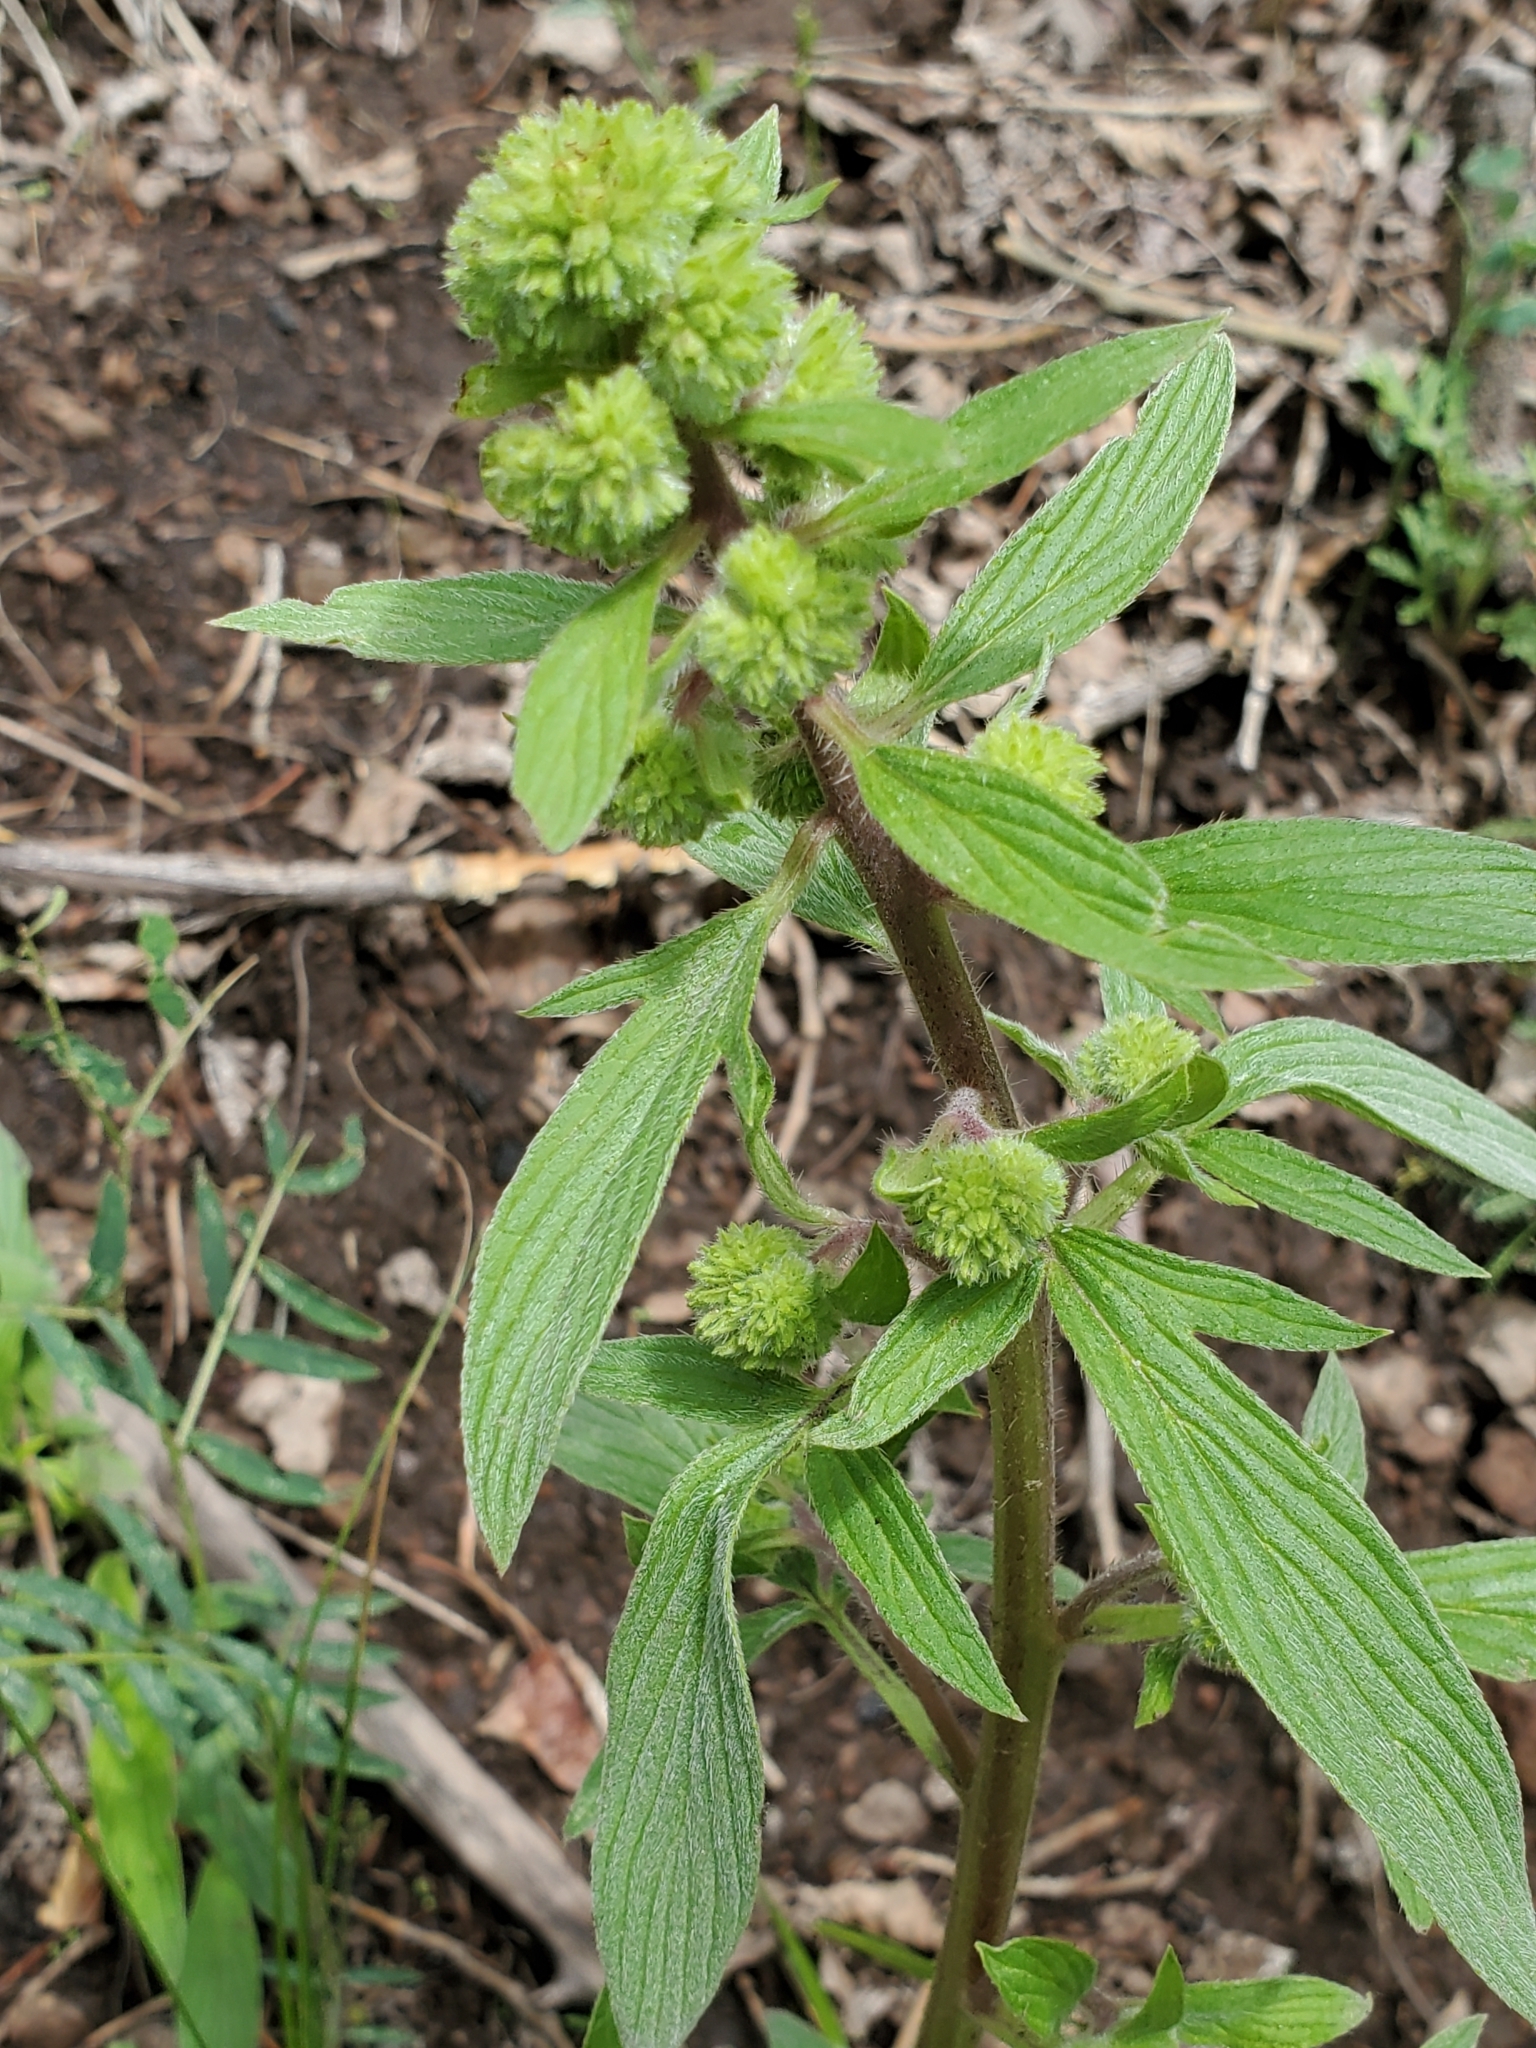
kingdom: Plantae
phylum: Tracheophyta
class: Magnoliopsida
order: Boraginales
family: Hydrophyllaceae
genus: Phacelia
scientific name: Phacelia heterophylla
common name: Variable-leaved phacelia
